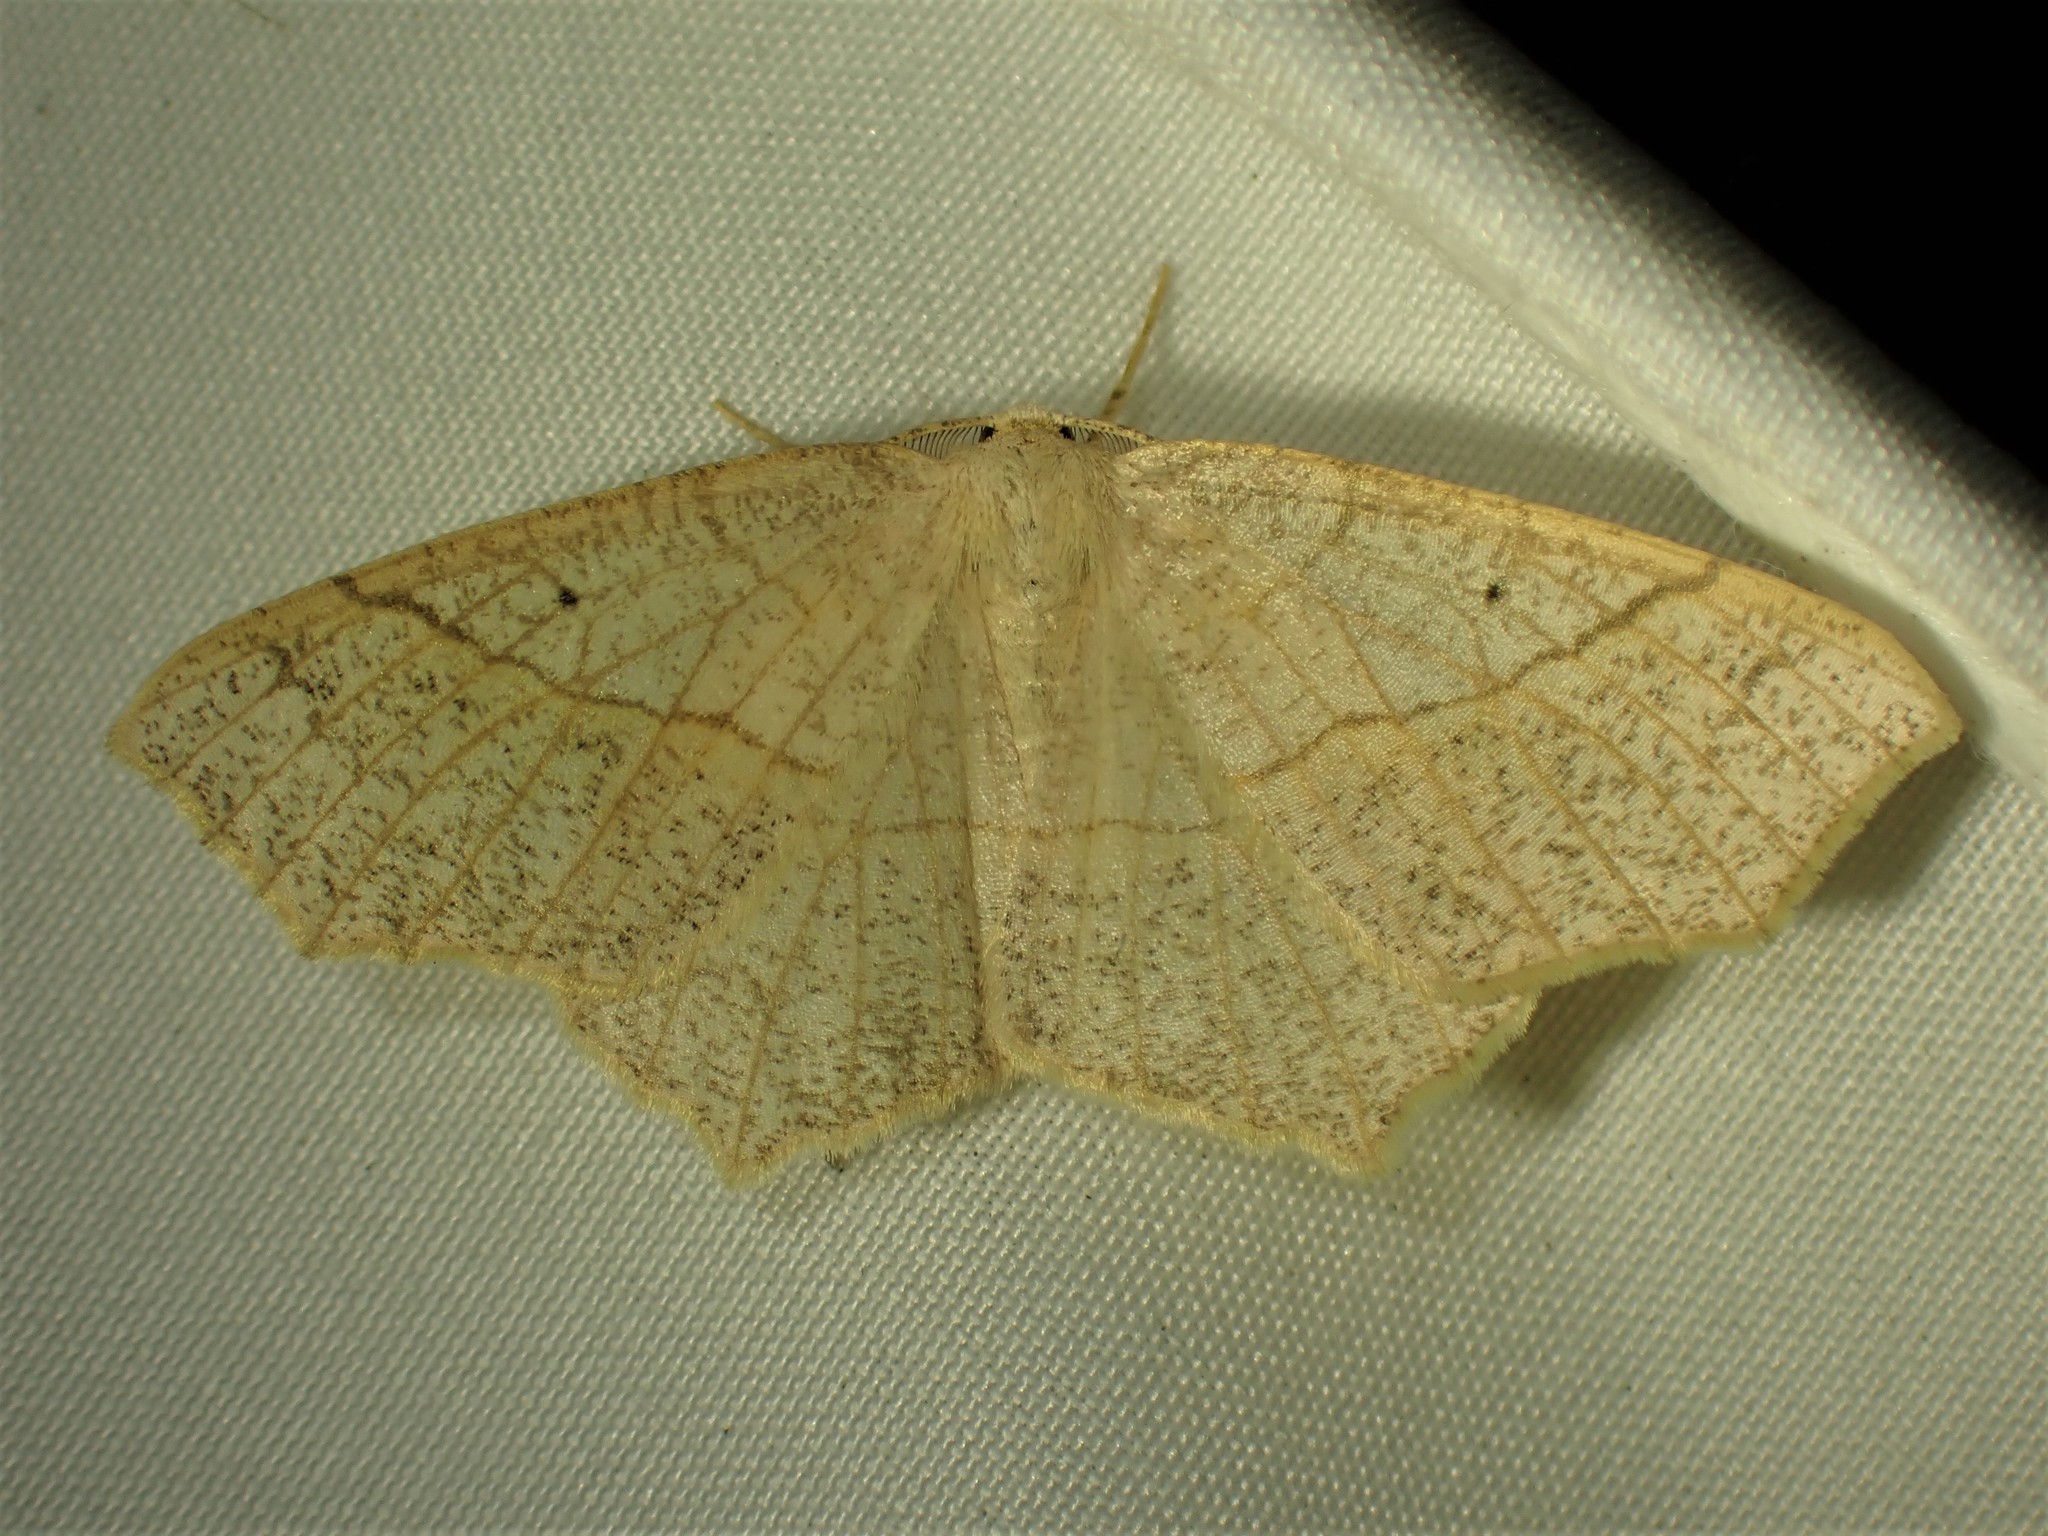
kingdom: Animalia
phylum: Arthropoda
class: Insecta
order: Lepidoptera
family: Geometridae
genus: Besma
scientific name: Besma quercivoraria
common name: Oak besma
